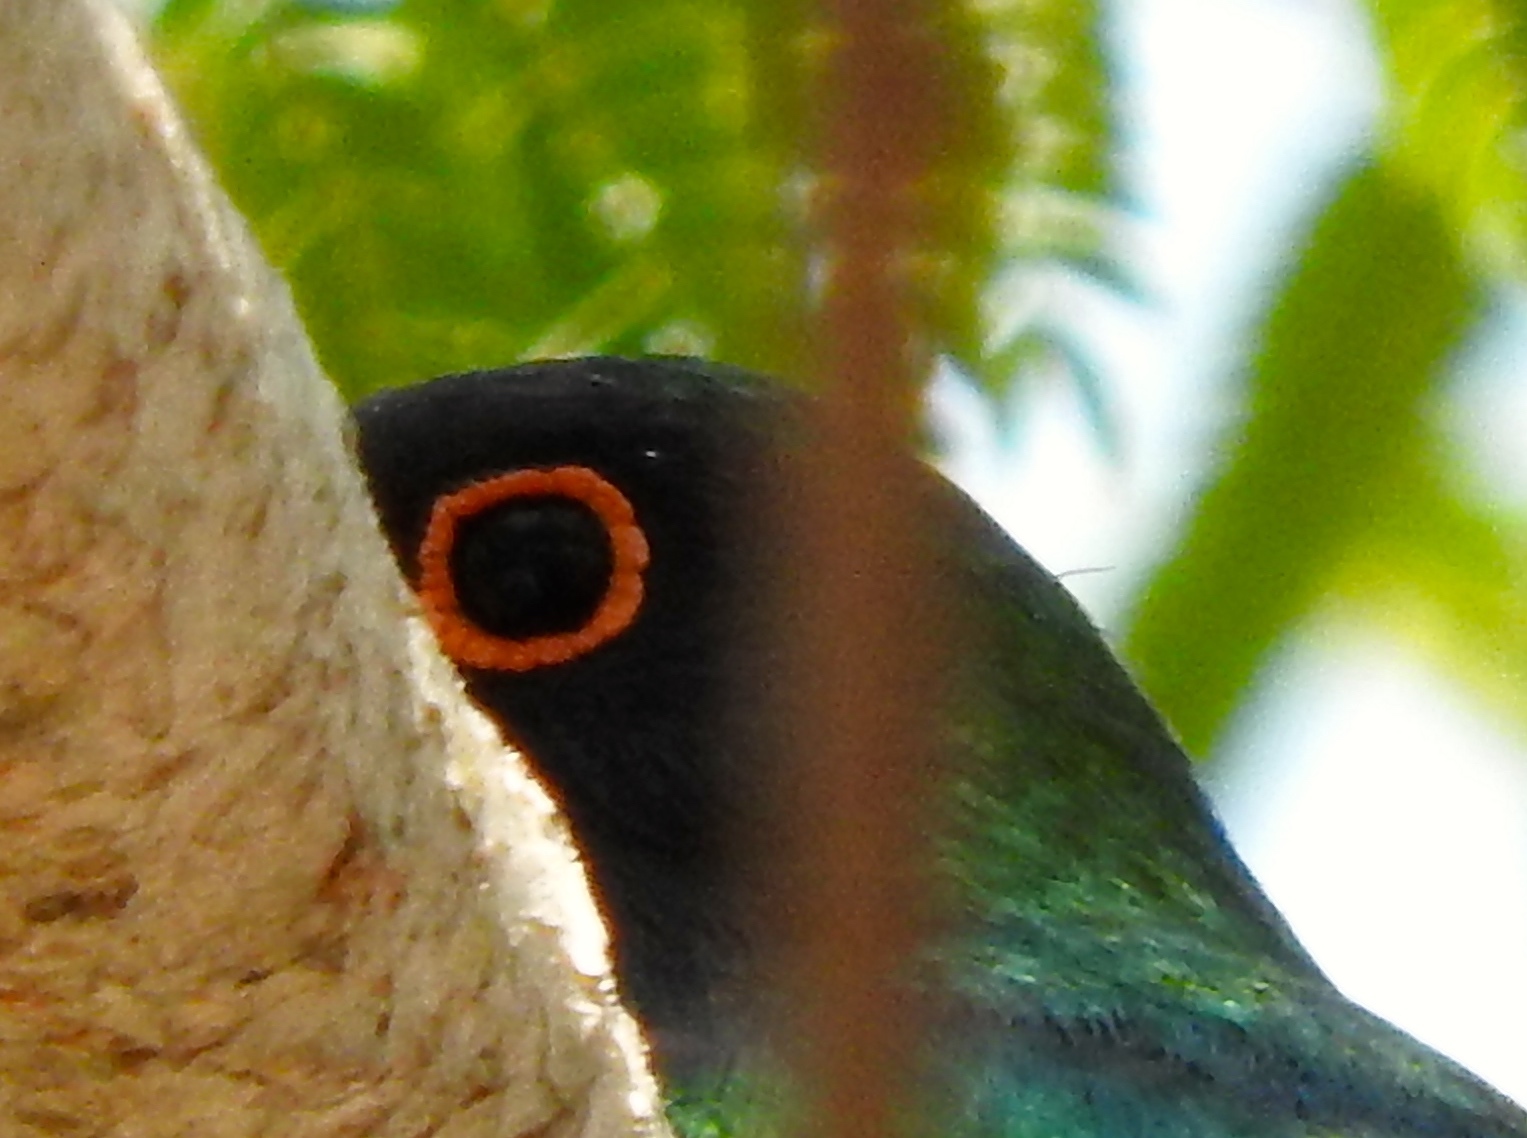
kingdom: Animalia
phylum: Chordata
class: Aves
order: Trogoniformes
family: Trogonidae
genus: Trogon
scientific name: Trogon elegans
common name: Elegant trogon
